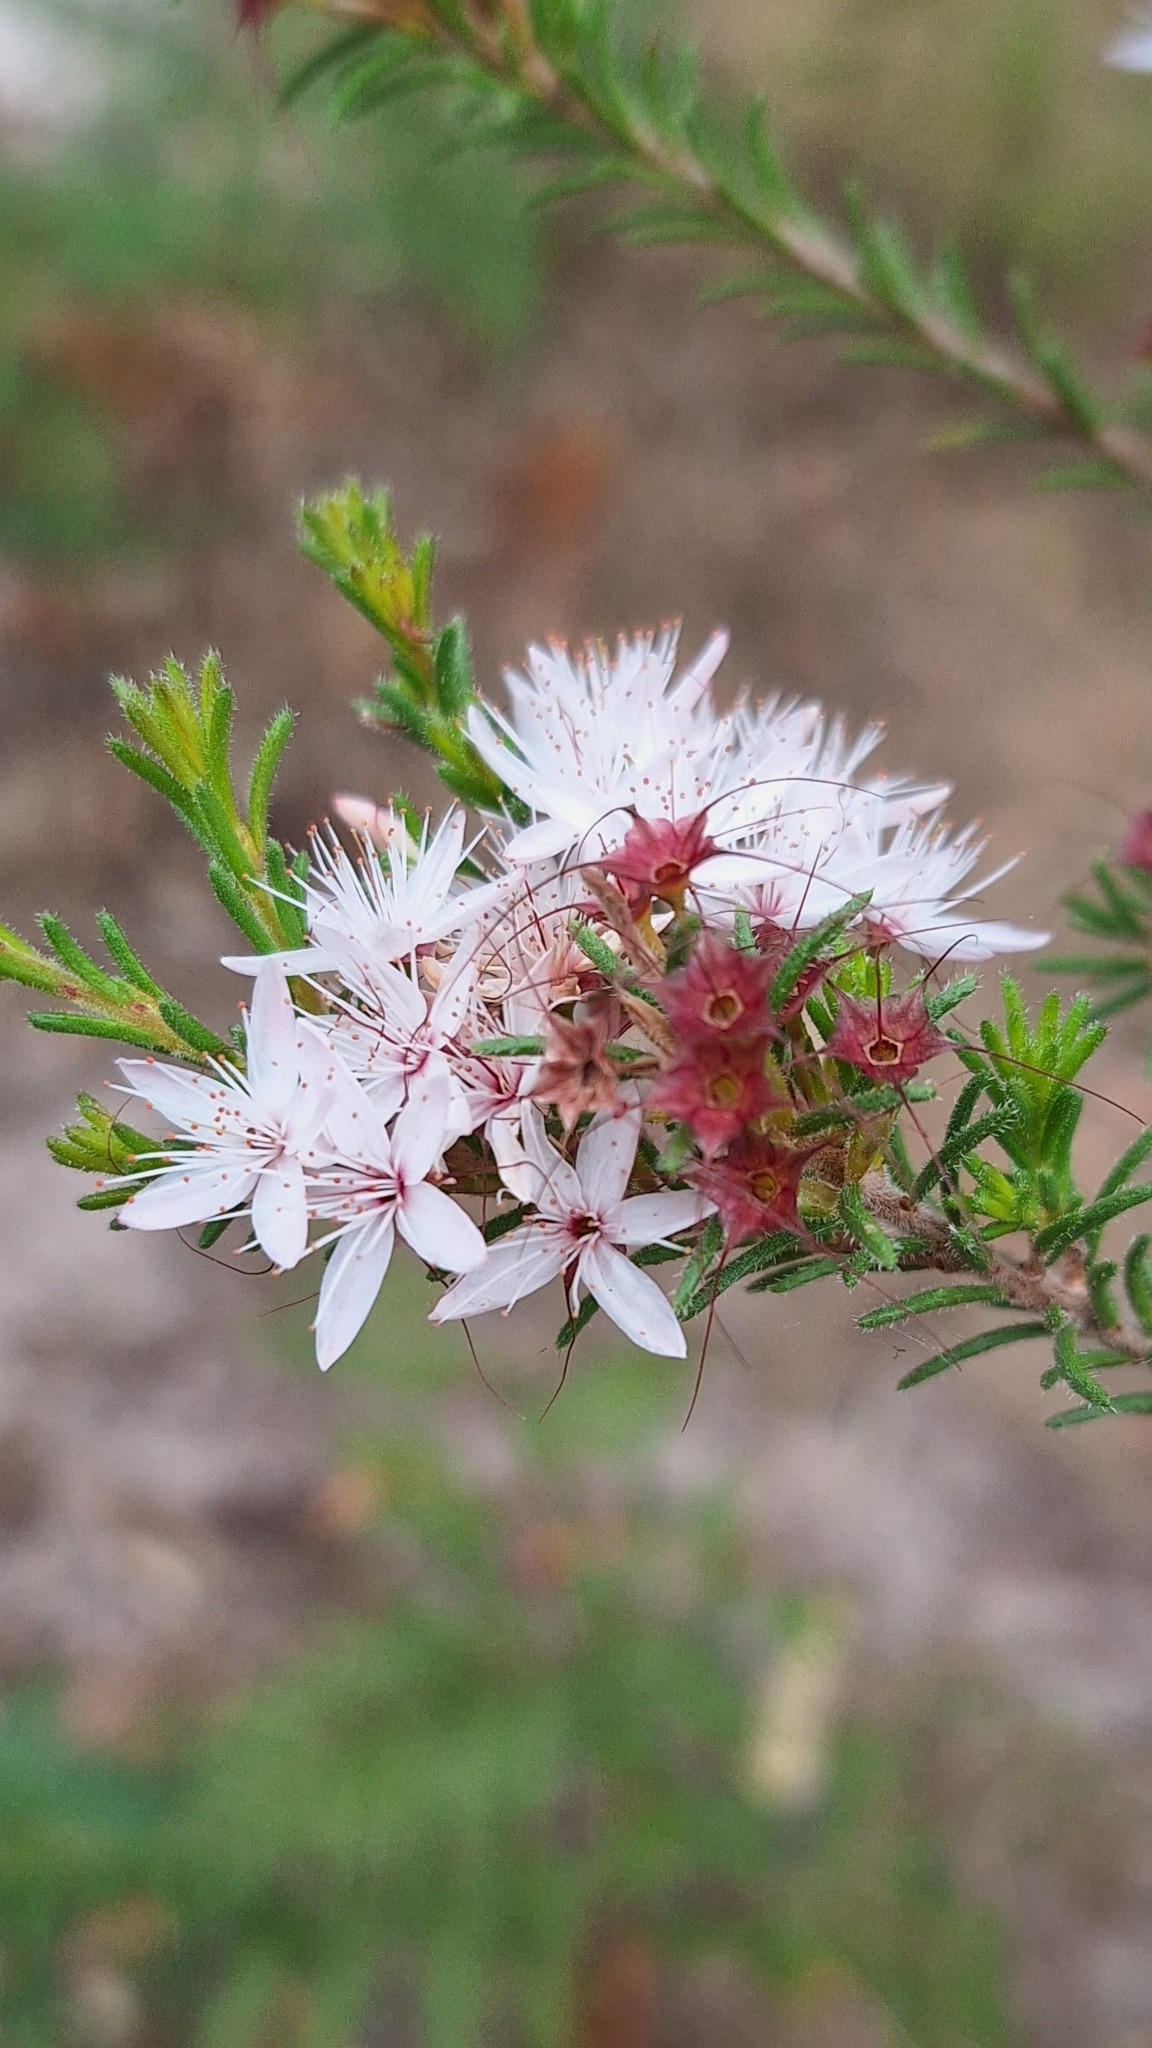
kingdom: Plantae
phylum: Tracheophyta
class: Magnoliopsida
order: Myrtales
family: Myrtaceae
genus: Calytrix
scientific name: Calytrix tetragona
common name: Common fringe myrtle
